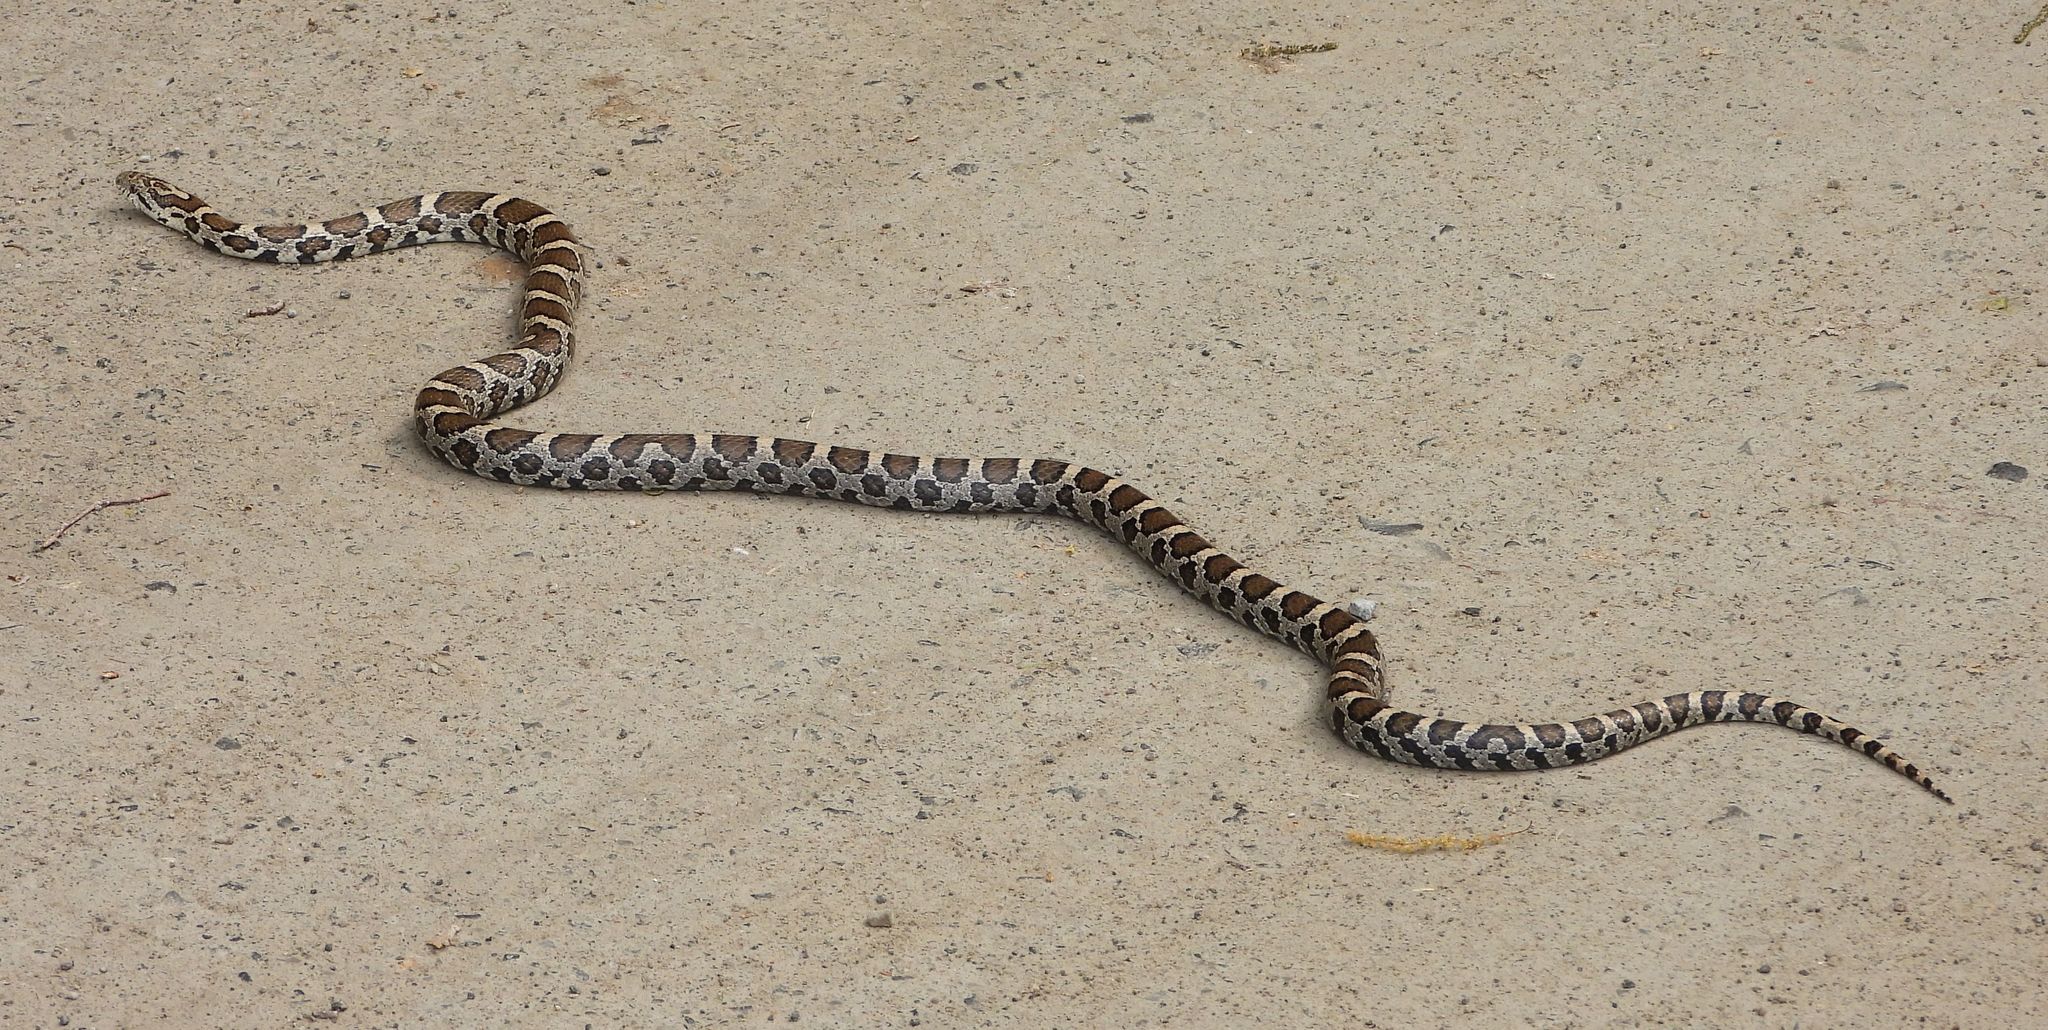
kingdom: Animalia
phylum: Chordata
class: Squamata
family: Colubridae
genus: Lampropeltis
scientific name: Lampropeltis triangulum
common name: Eastern milksnake
